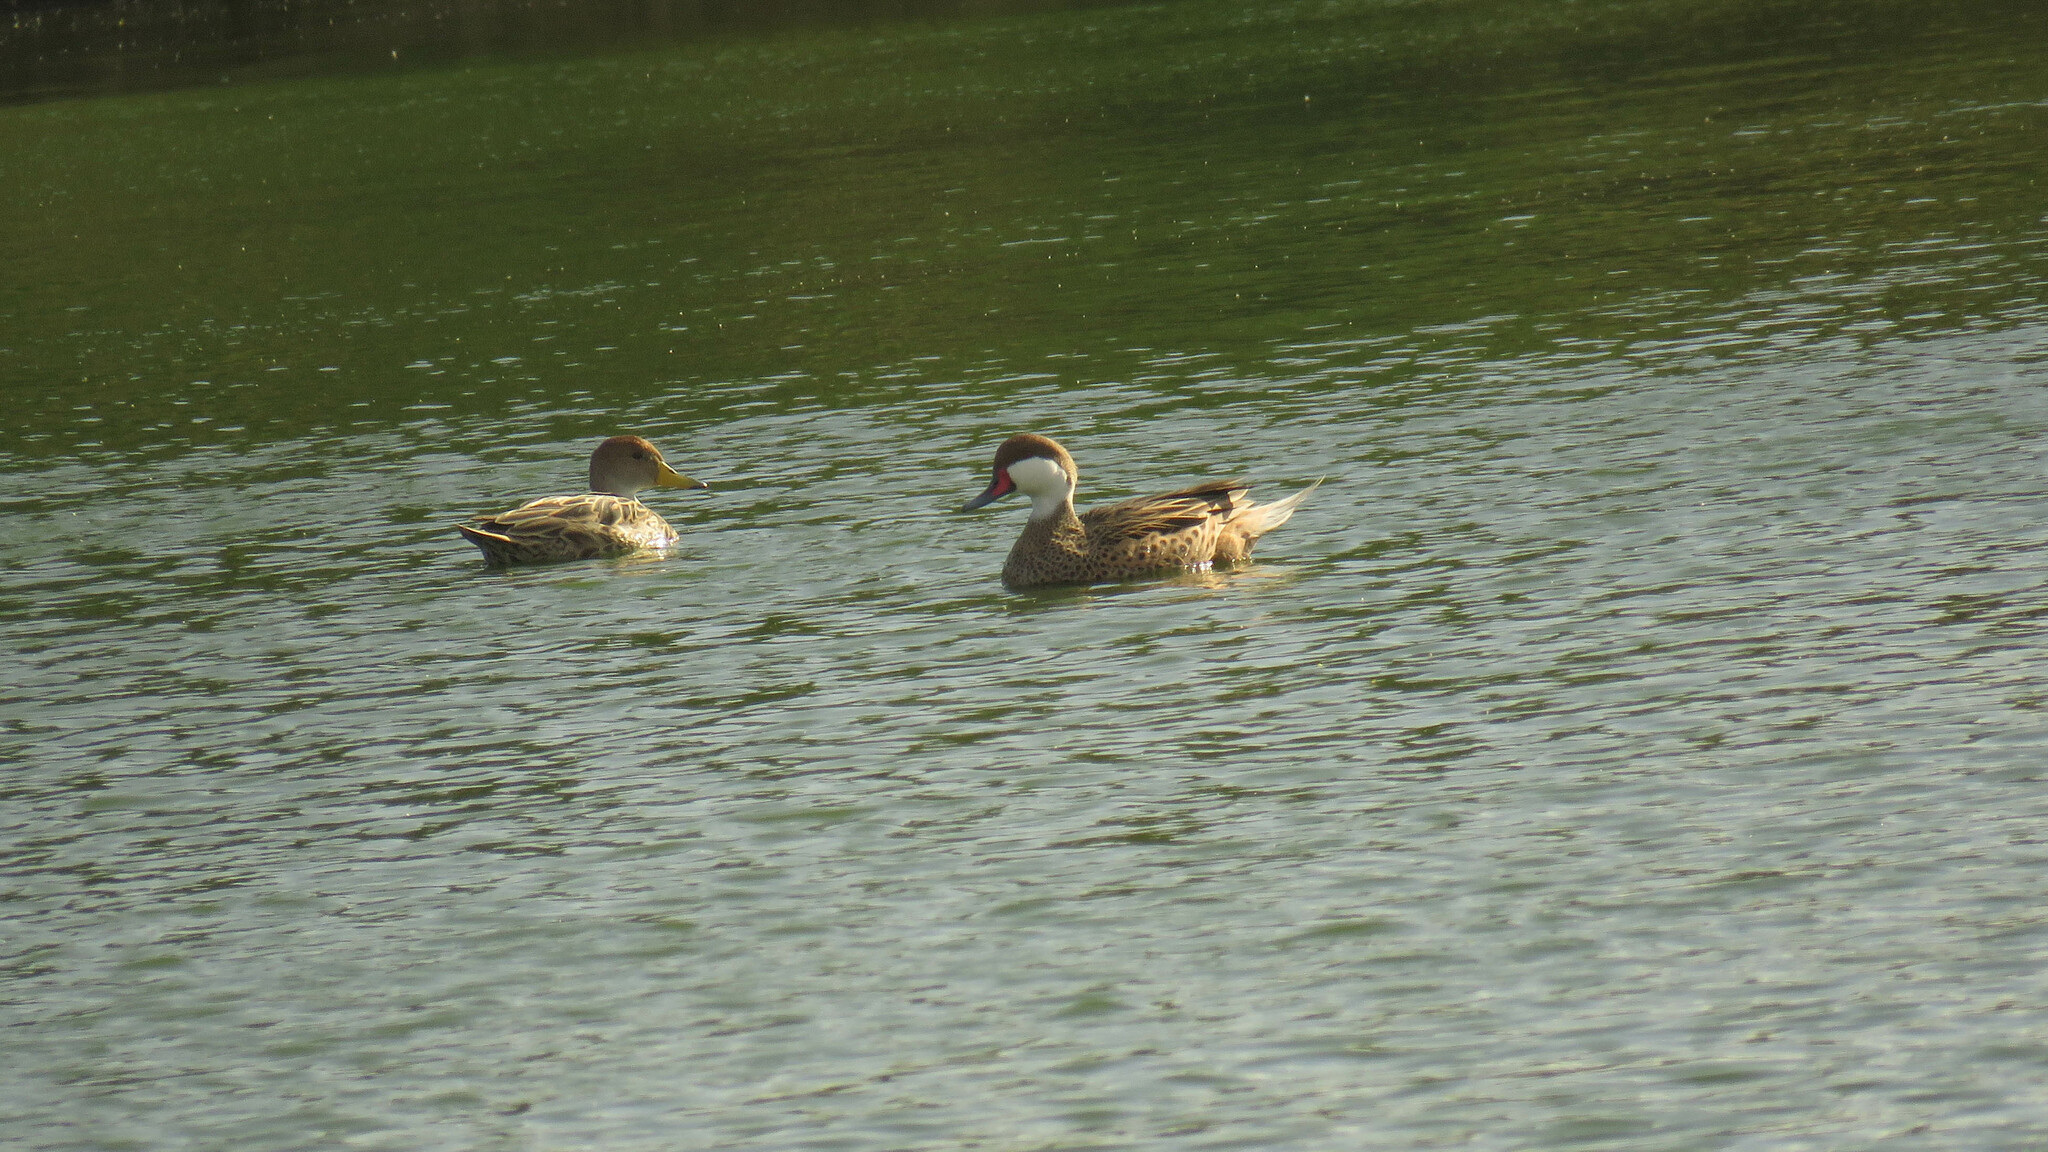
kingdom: Animalia
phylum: Chordata
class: Aves
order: Anseriformes
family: Anatidae
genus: Anas
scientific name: Anas bahamensis
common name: White-cheeked pintail
